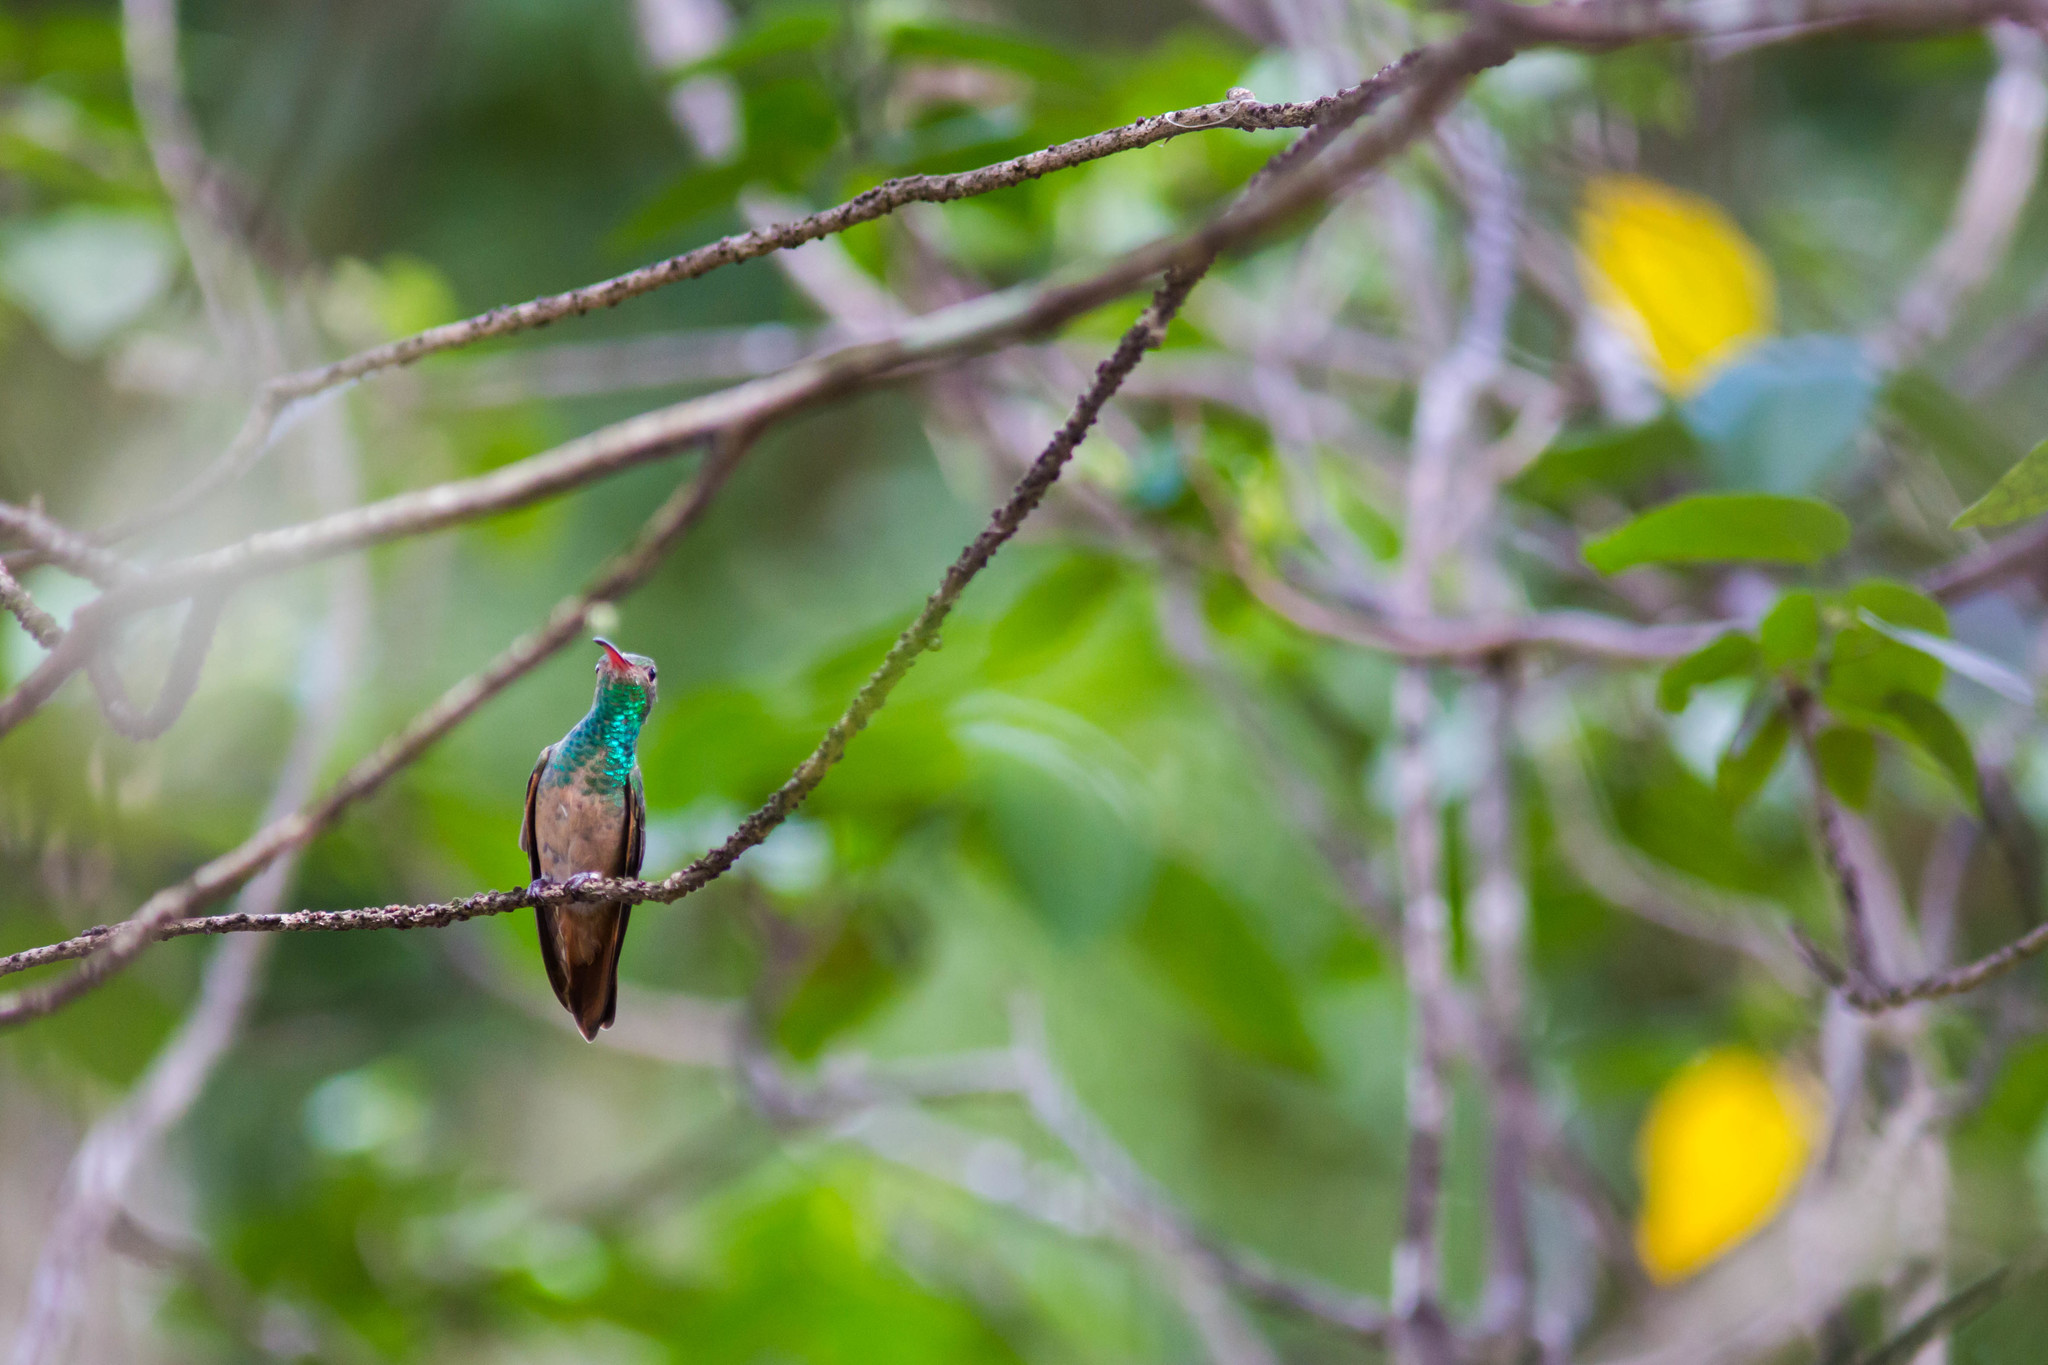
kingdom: Animalia
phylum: Chordata
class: Aves
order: Apodiformes
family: Trochilidae
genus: Amazilia
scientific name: Amazilia yucatanensis
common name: Buff-bellied hummingbird
